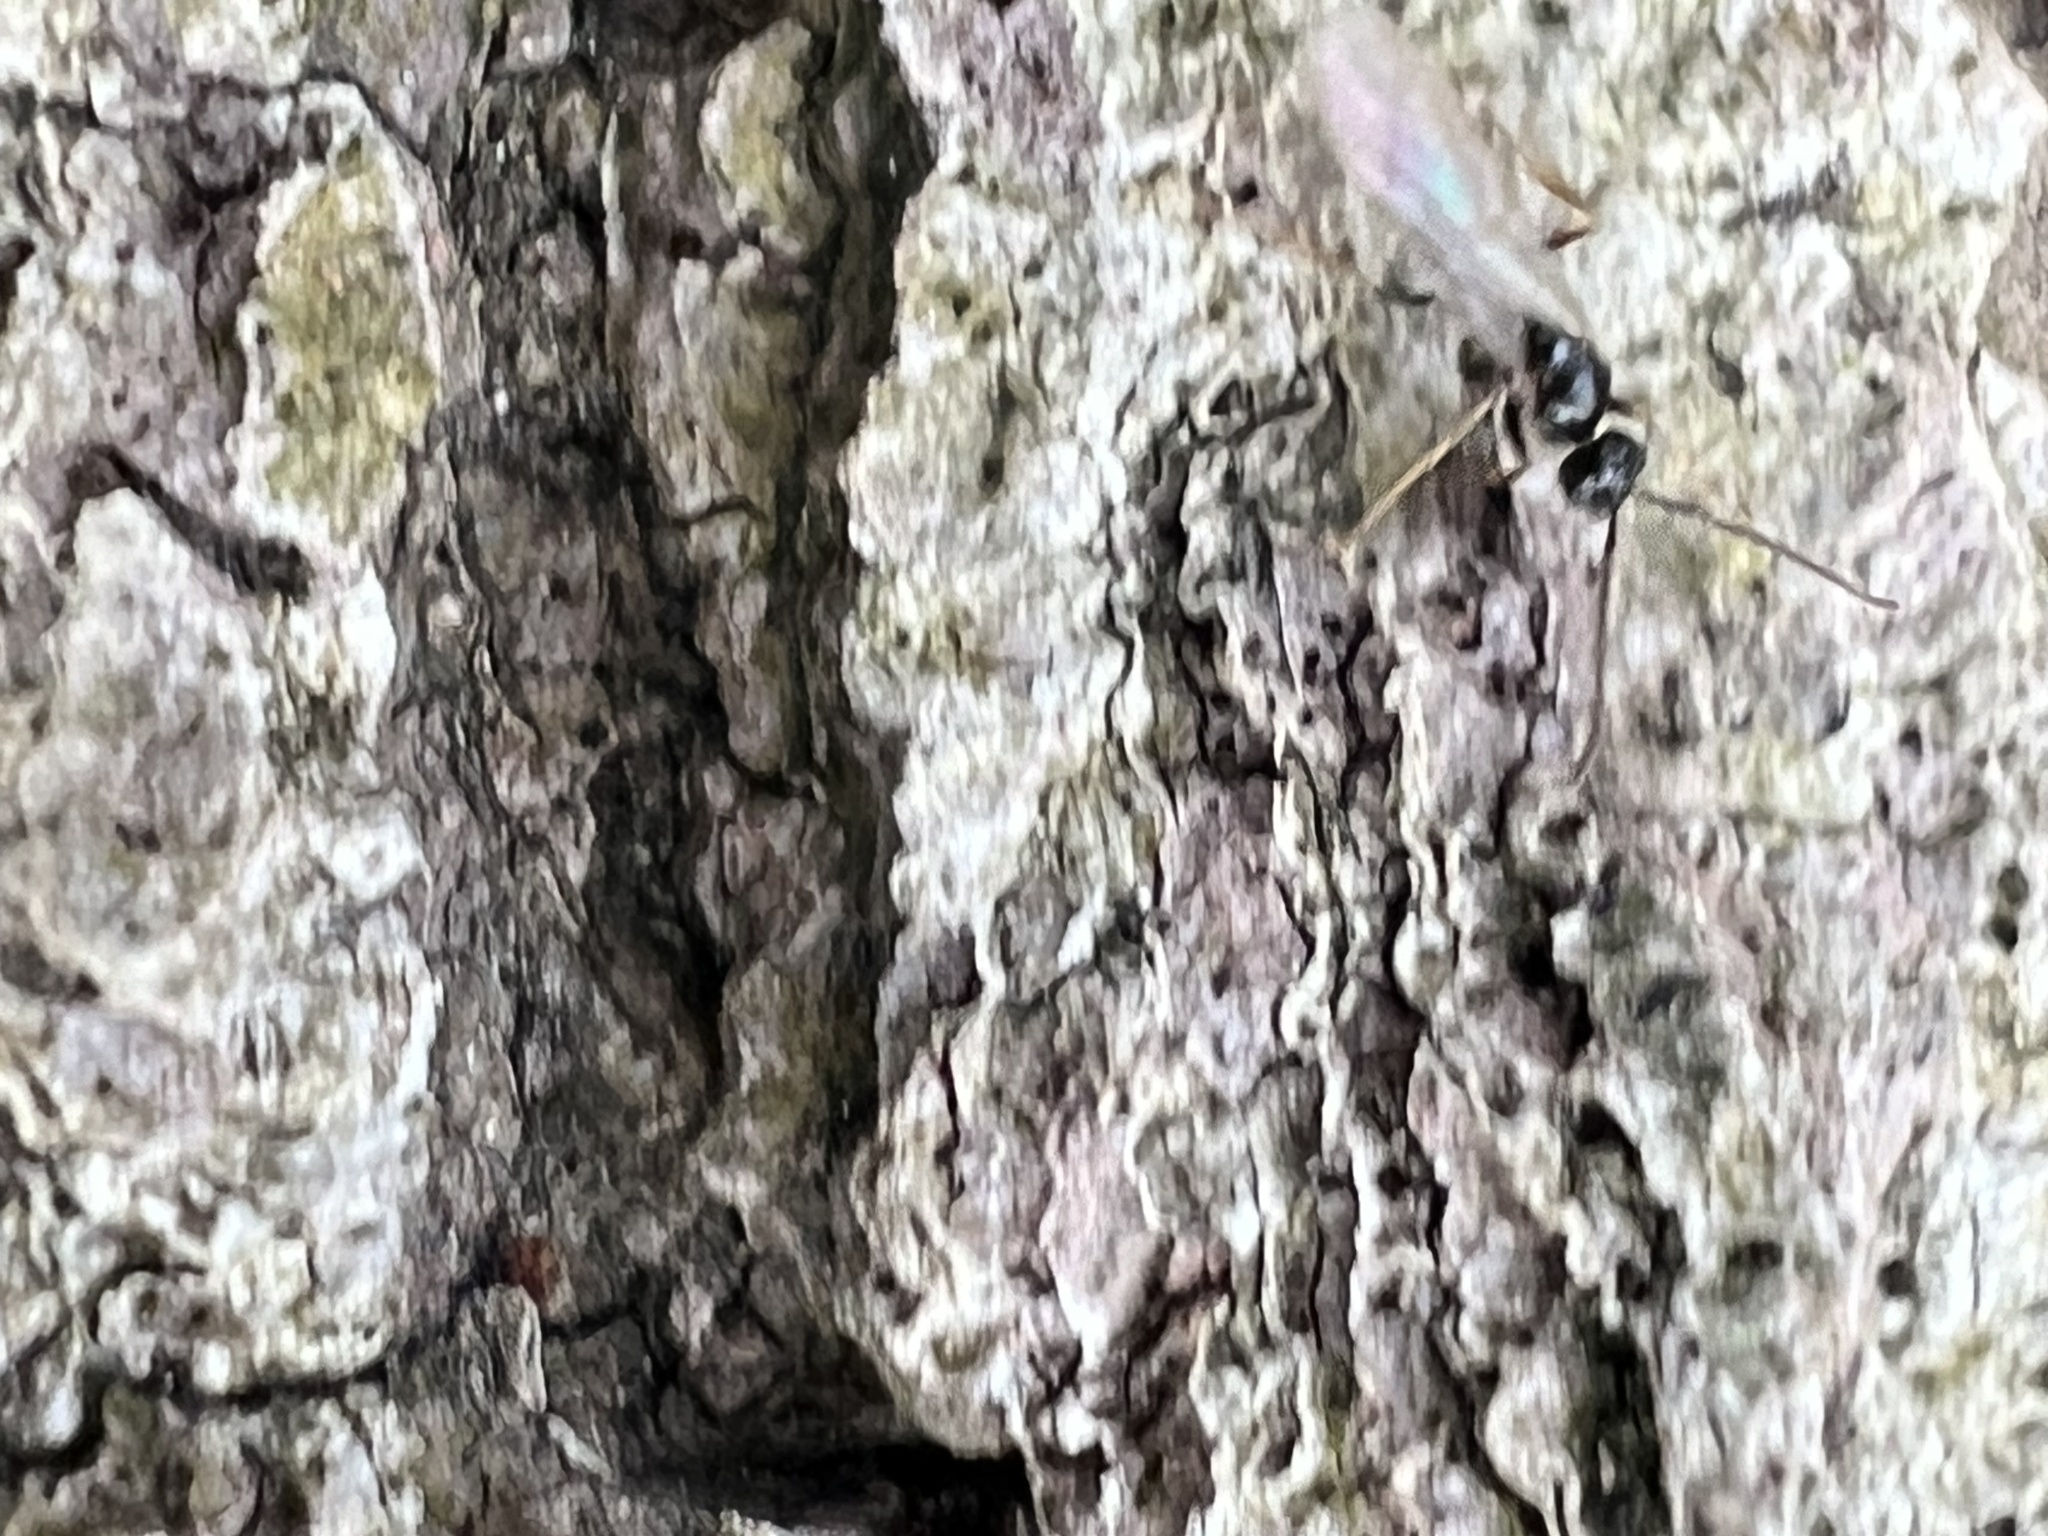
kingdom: Animalia
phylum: Arthropoda
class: Insecta
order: Hymenoptera
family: Formicidae
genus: Prenolepis
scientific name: Prenolepis imparis
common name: Small honey ant
